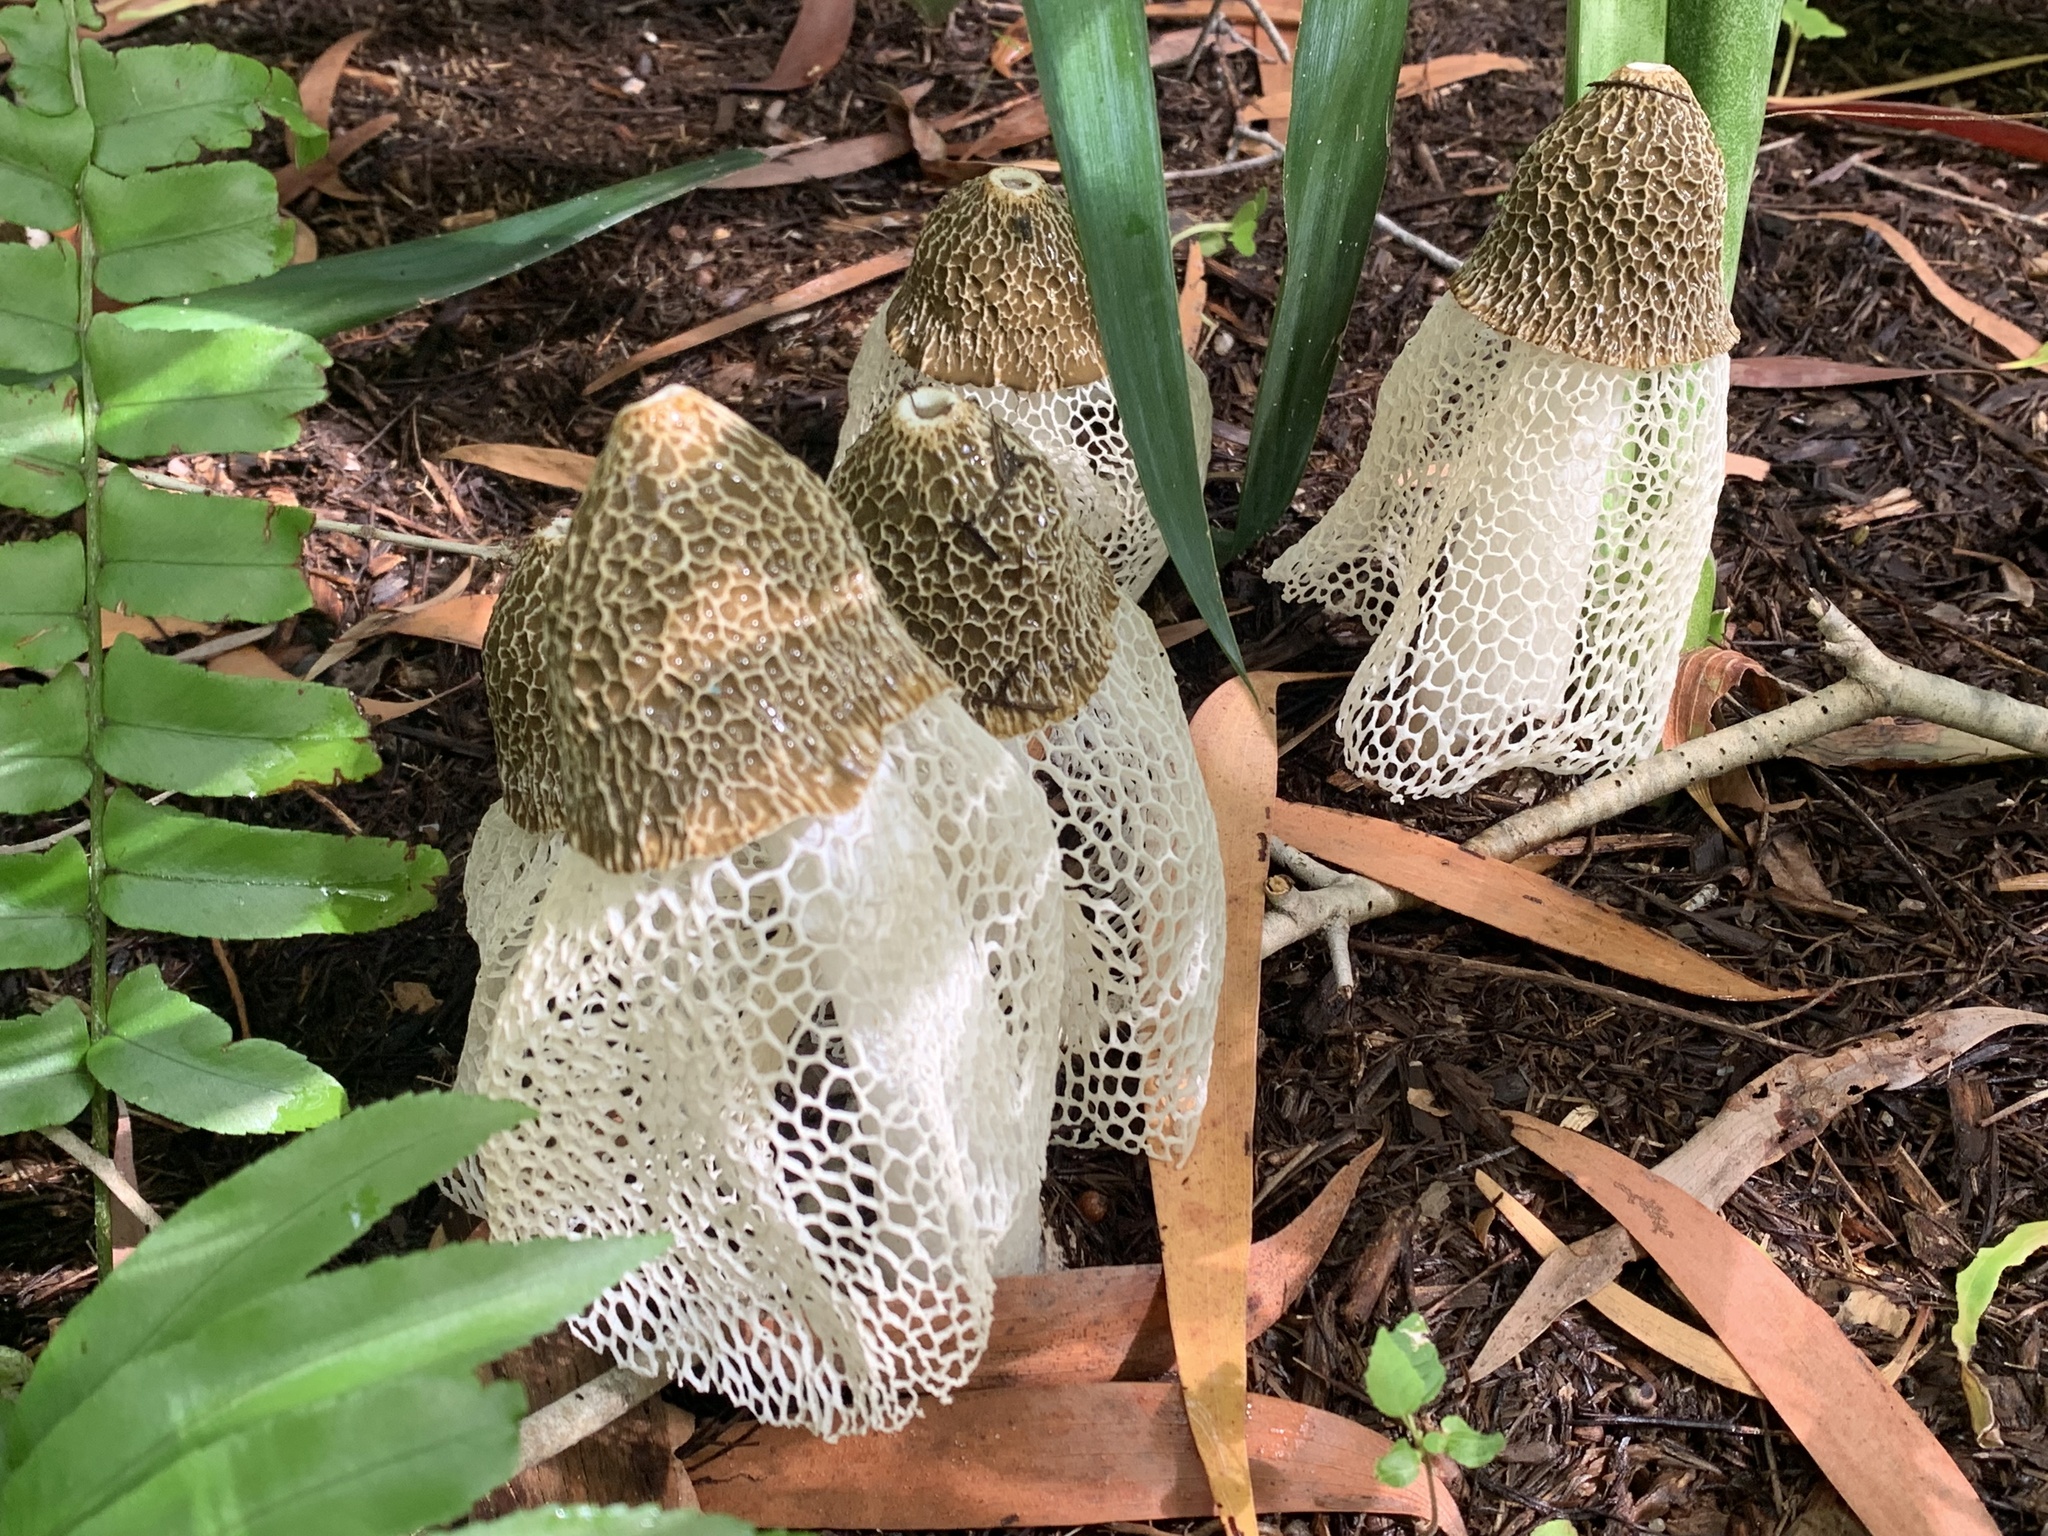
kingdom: Fungi
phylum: Basidiomycota
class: Agaricomycetes
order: Phallales
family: Phallaceae
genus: Phallus
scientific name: Phallus indusiatus
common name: Bridal veil stinkhorn
